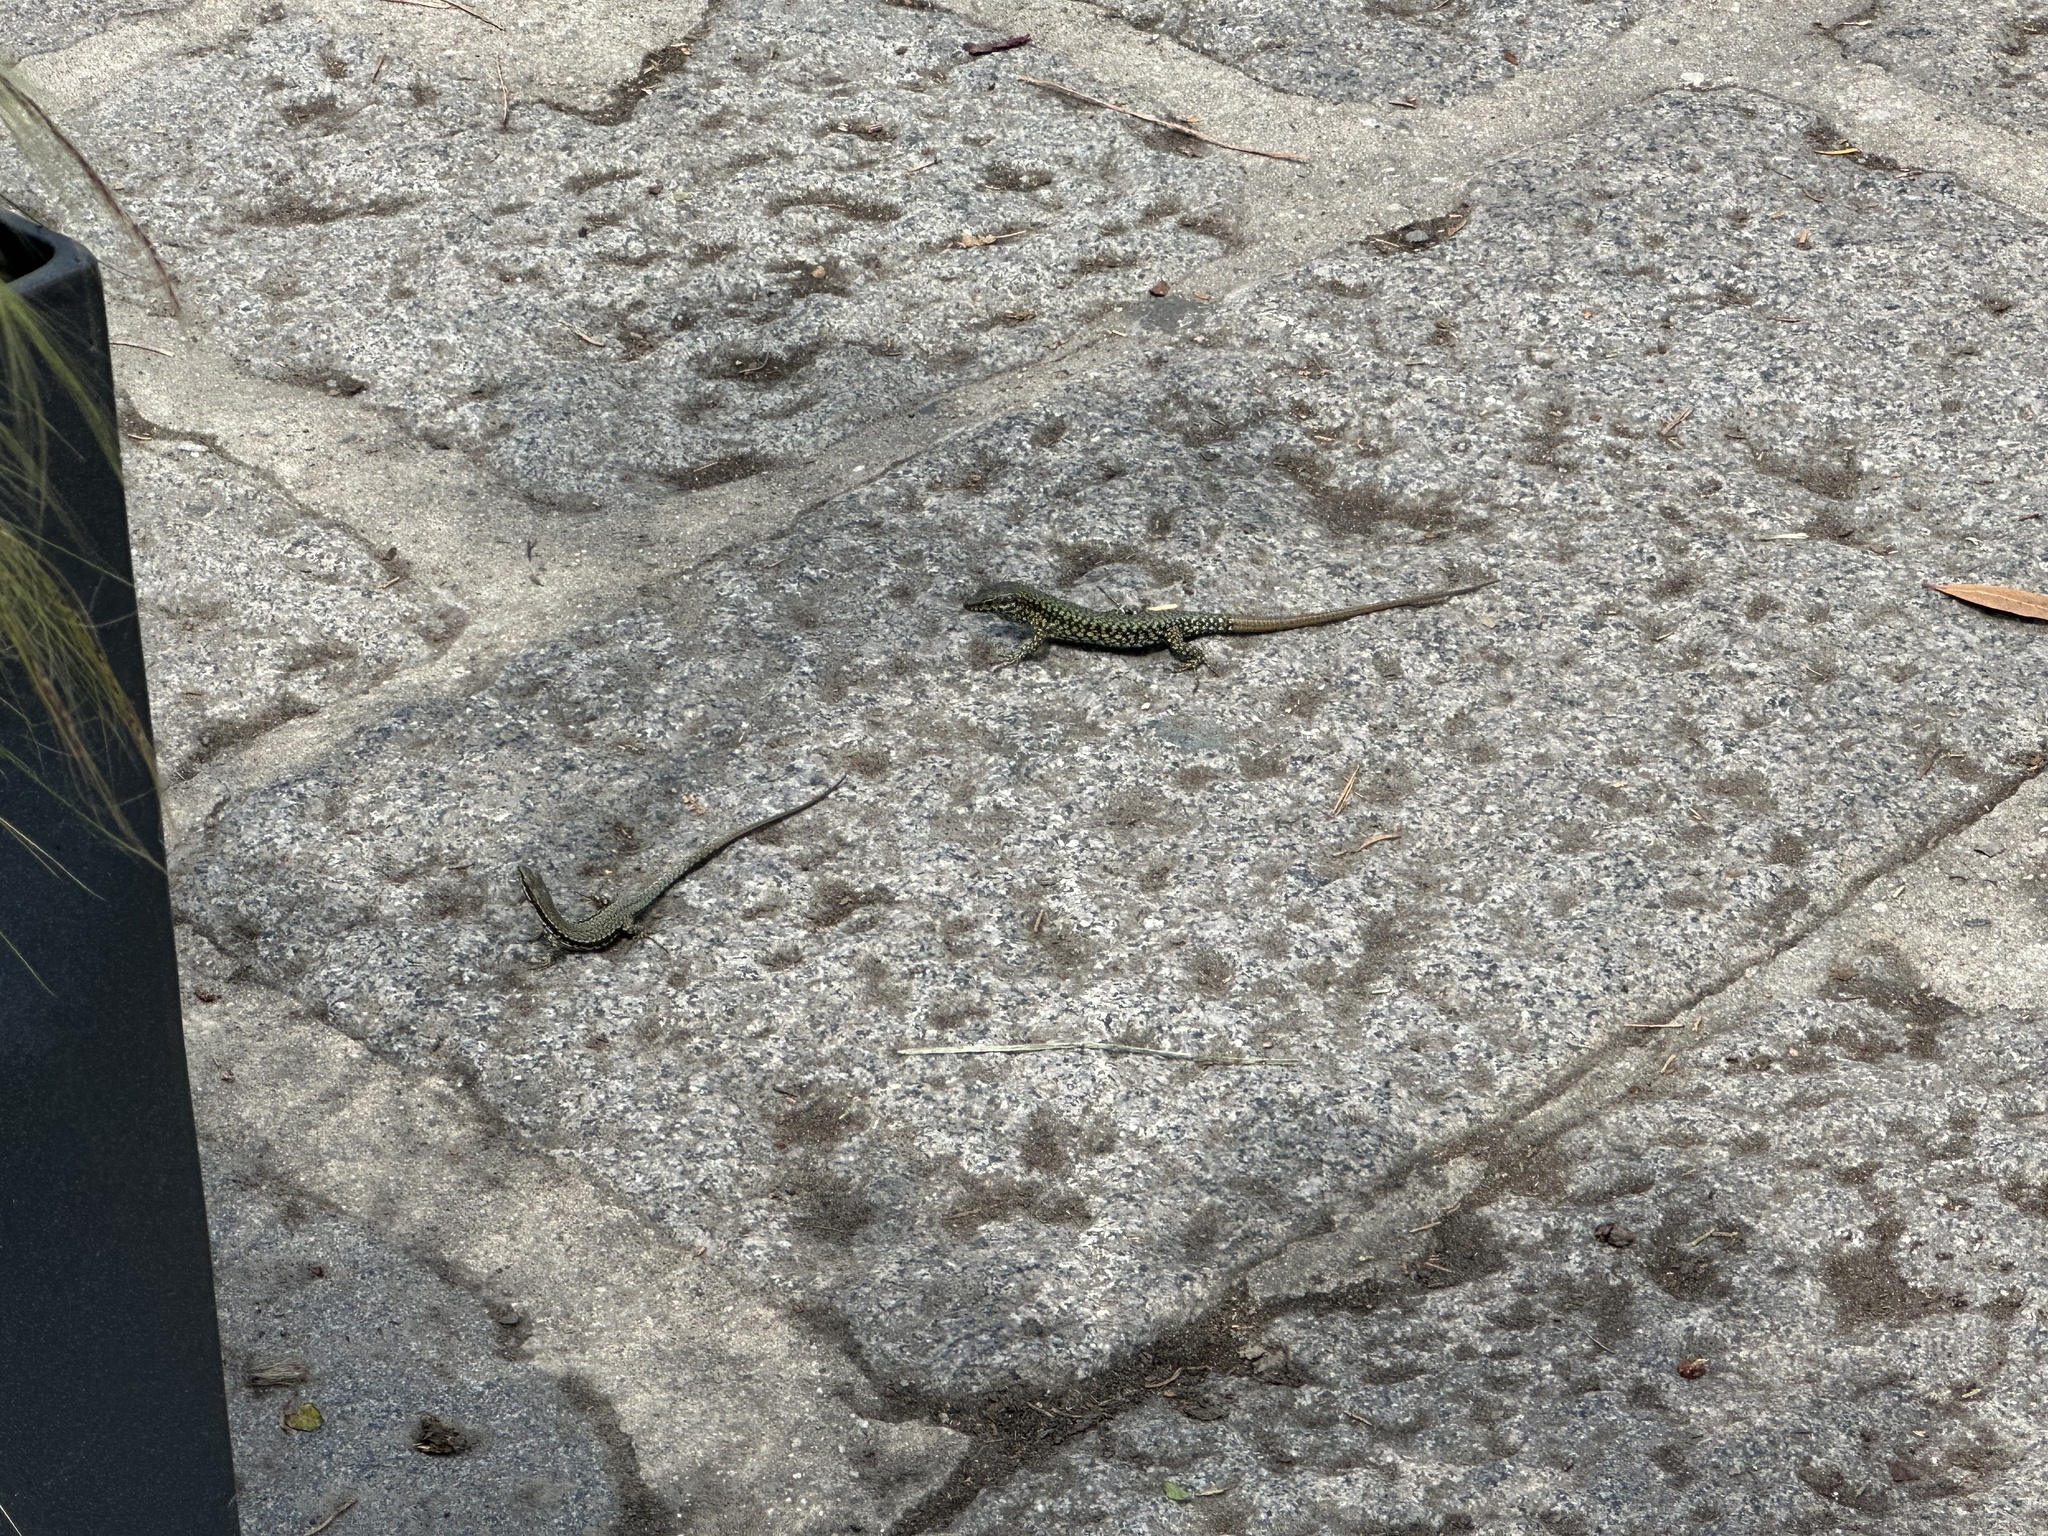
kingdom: Animalia
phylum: Chordata
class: Squamata
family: Lacertidae
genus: Podarcis
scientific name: Podarcis muralis
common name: Common wall lizard
